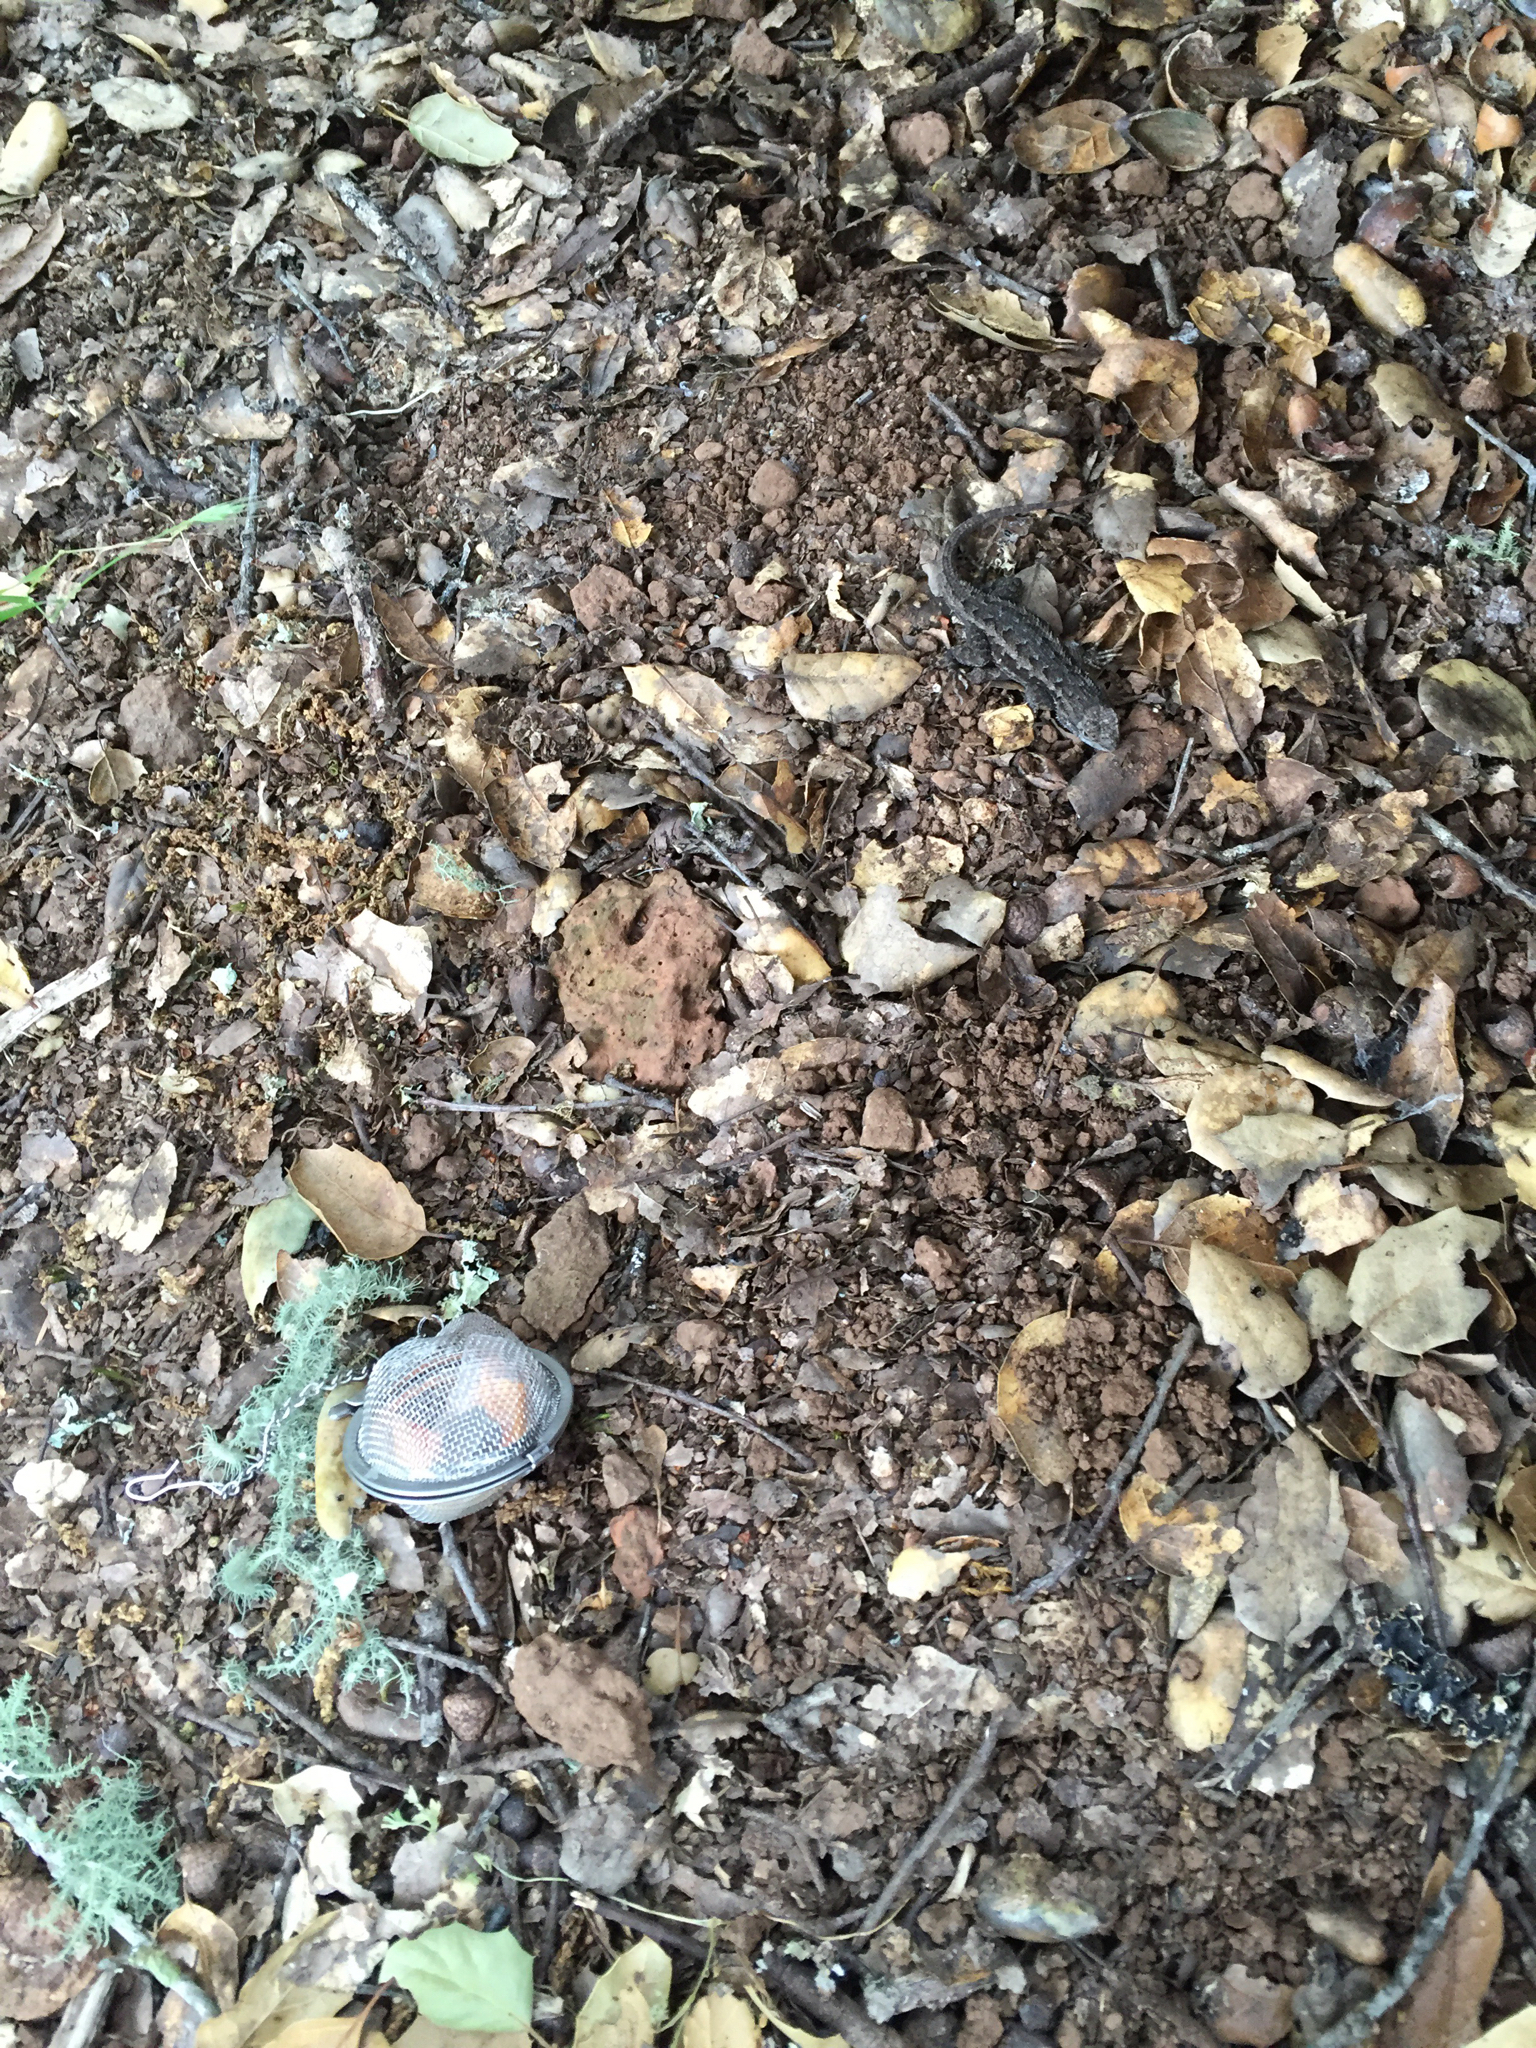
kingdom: Animalia
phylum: Chordata
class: Squamata
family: Phrynosomatidae
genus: Sceloporus
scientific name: Sceloporus occidentalis
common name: Western fence lizard
